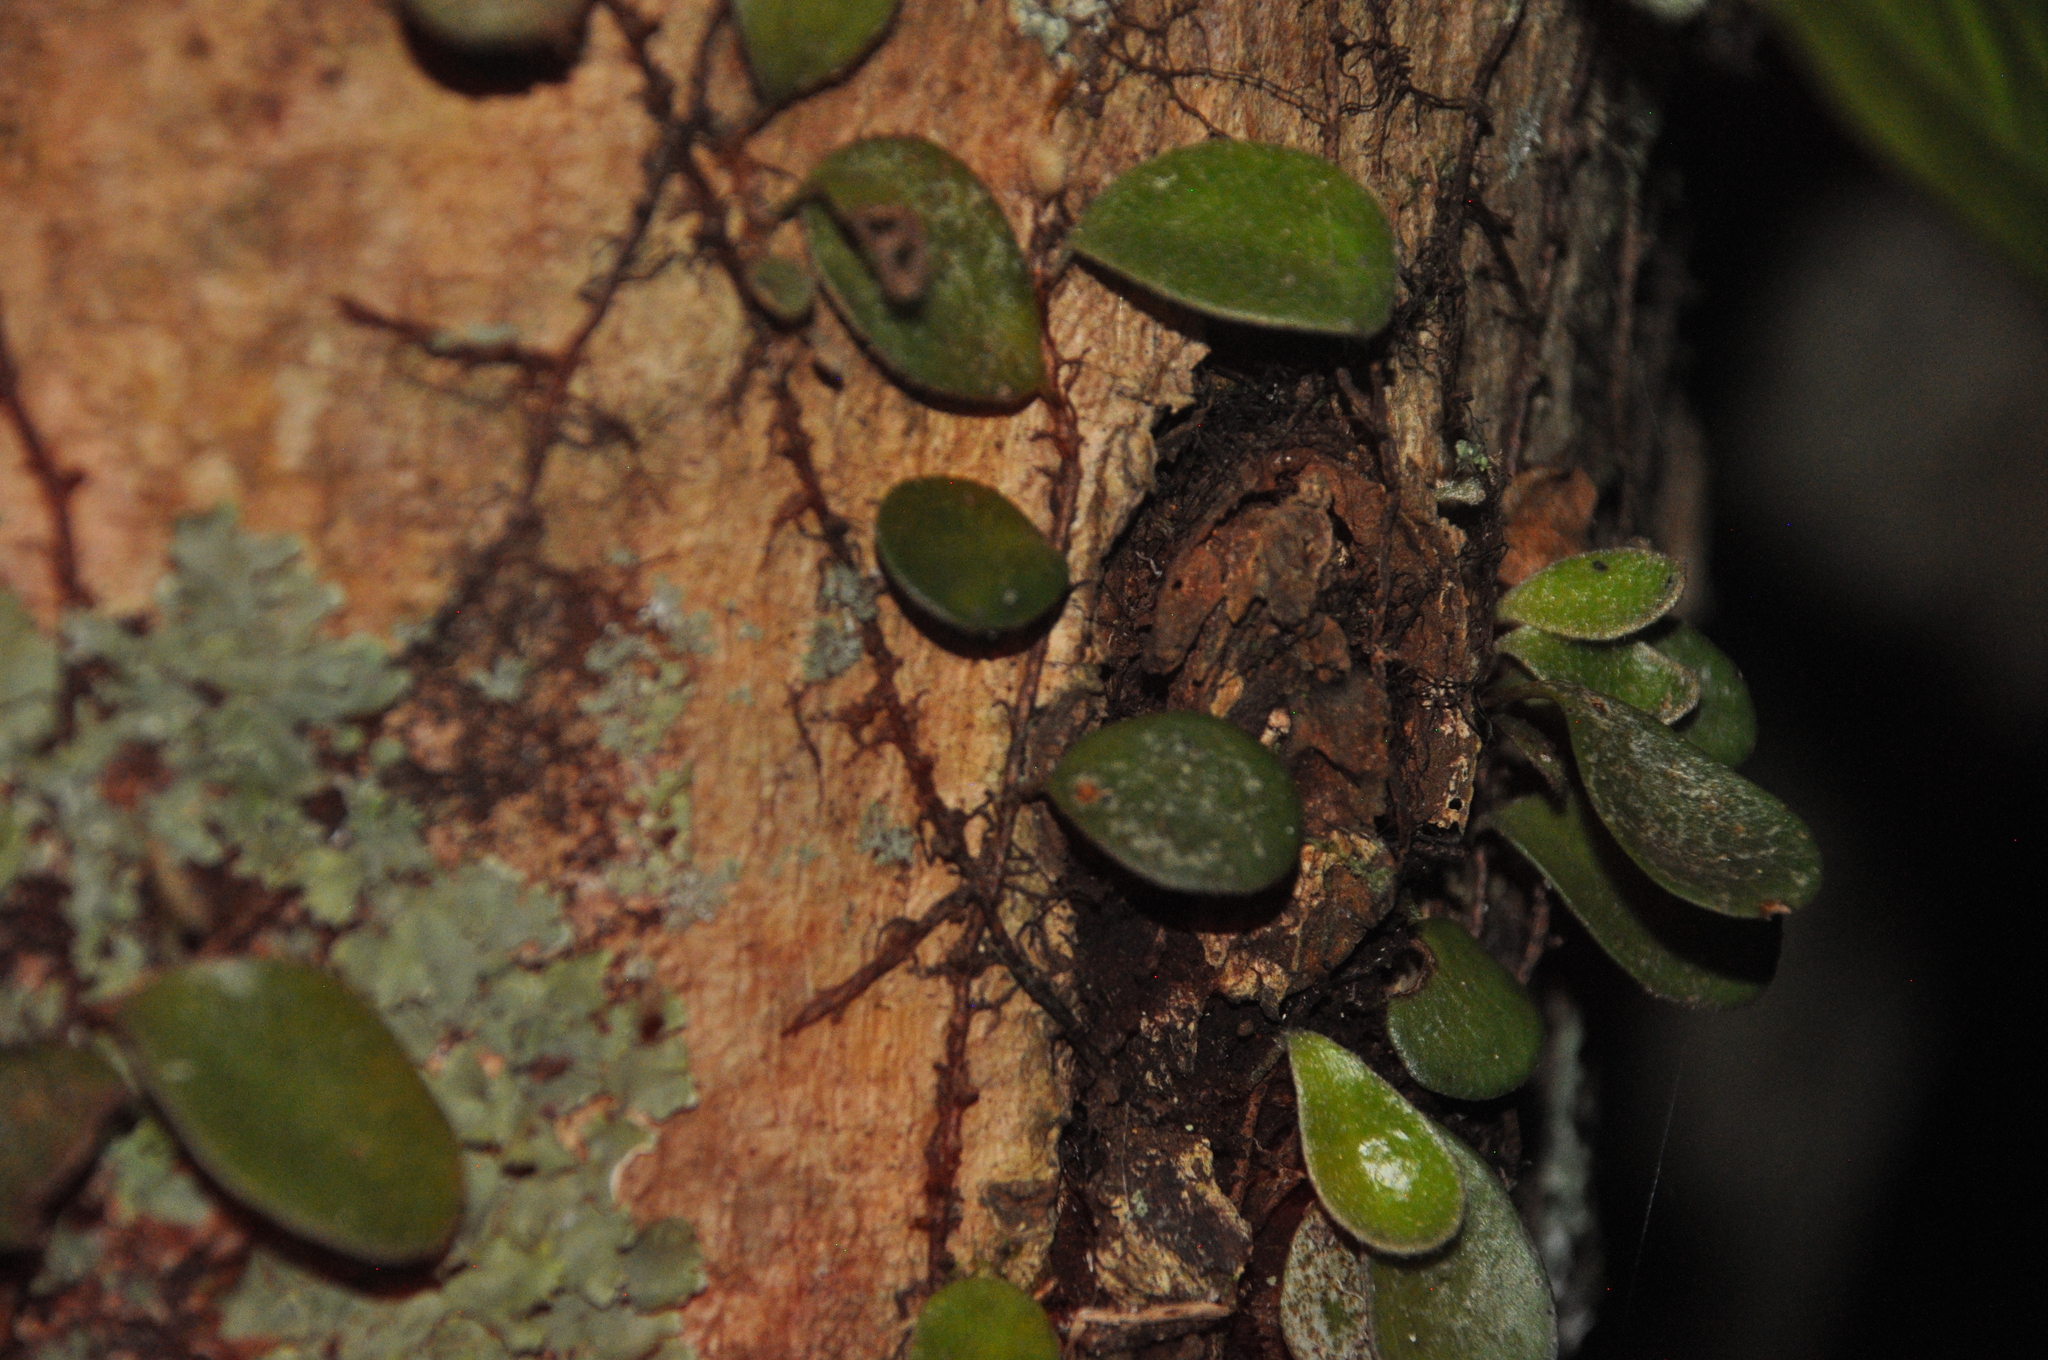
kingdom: Plantae
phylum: Tracheophyta
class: Polypodiopsida
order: Polypodiales
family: Polypodiaceae
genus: Pyrrosia
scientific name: Pyrrosia eleagnifolia
